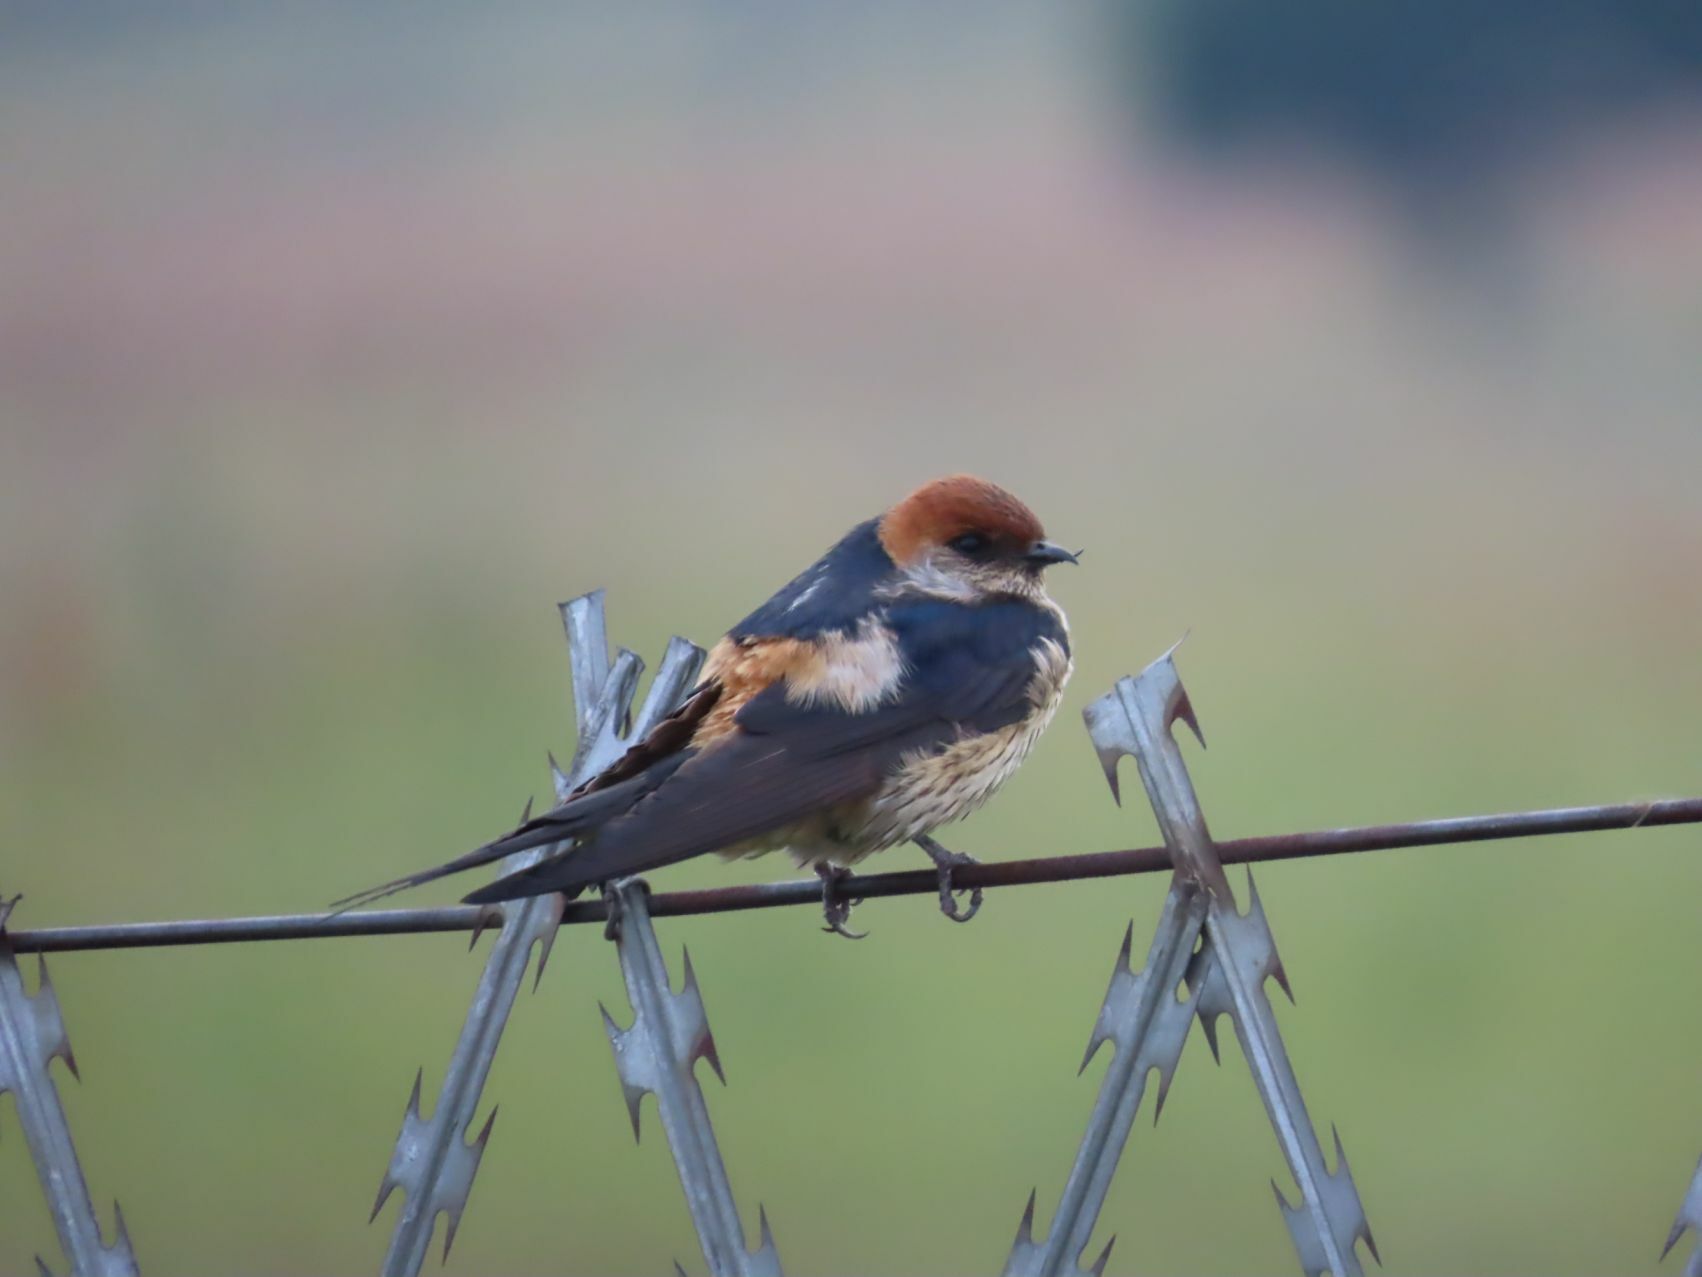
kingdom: Animalia
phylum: Chordata
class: Aves
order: Passeriformes
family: Hirundinidae
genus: Cecropis
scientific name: Cecropis cucullata
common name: Greater striped-swallow
